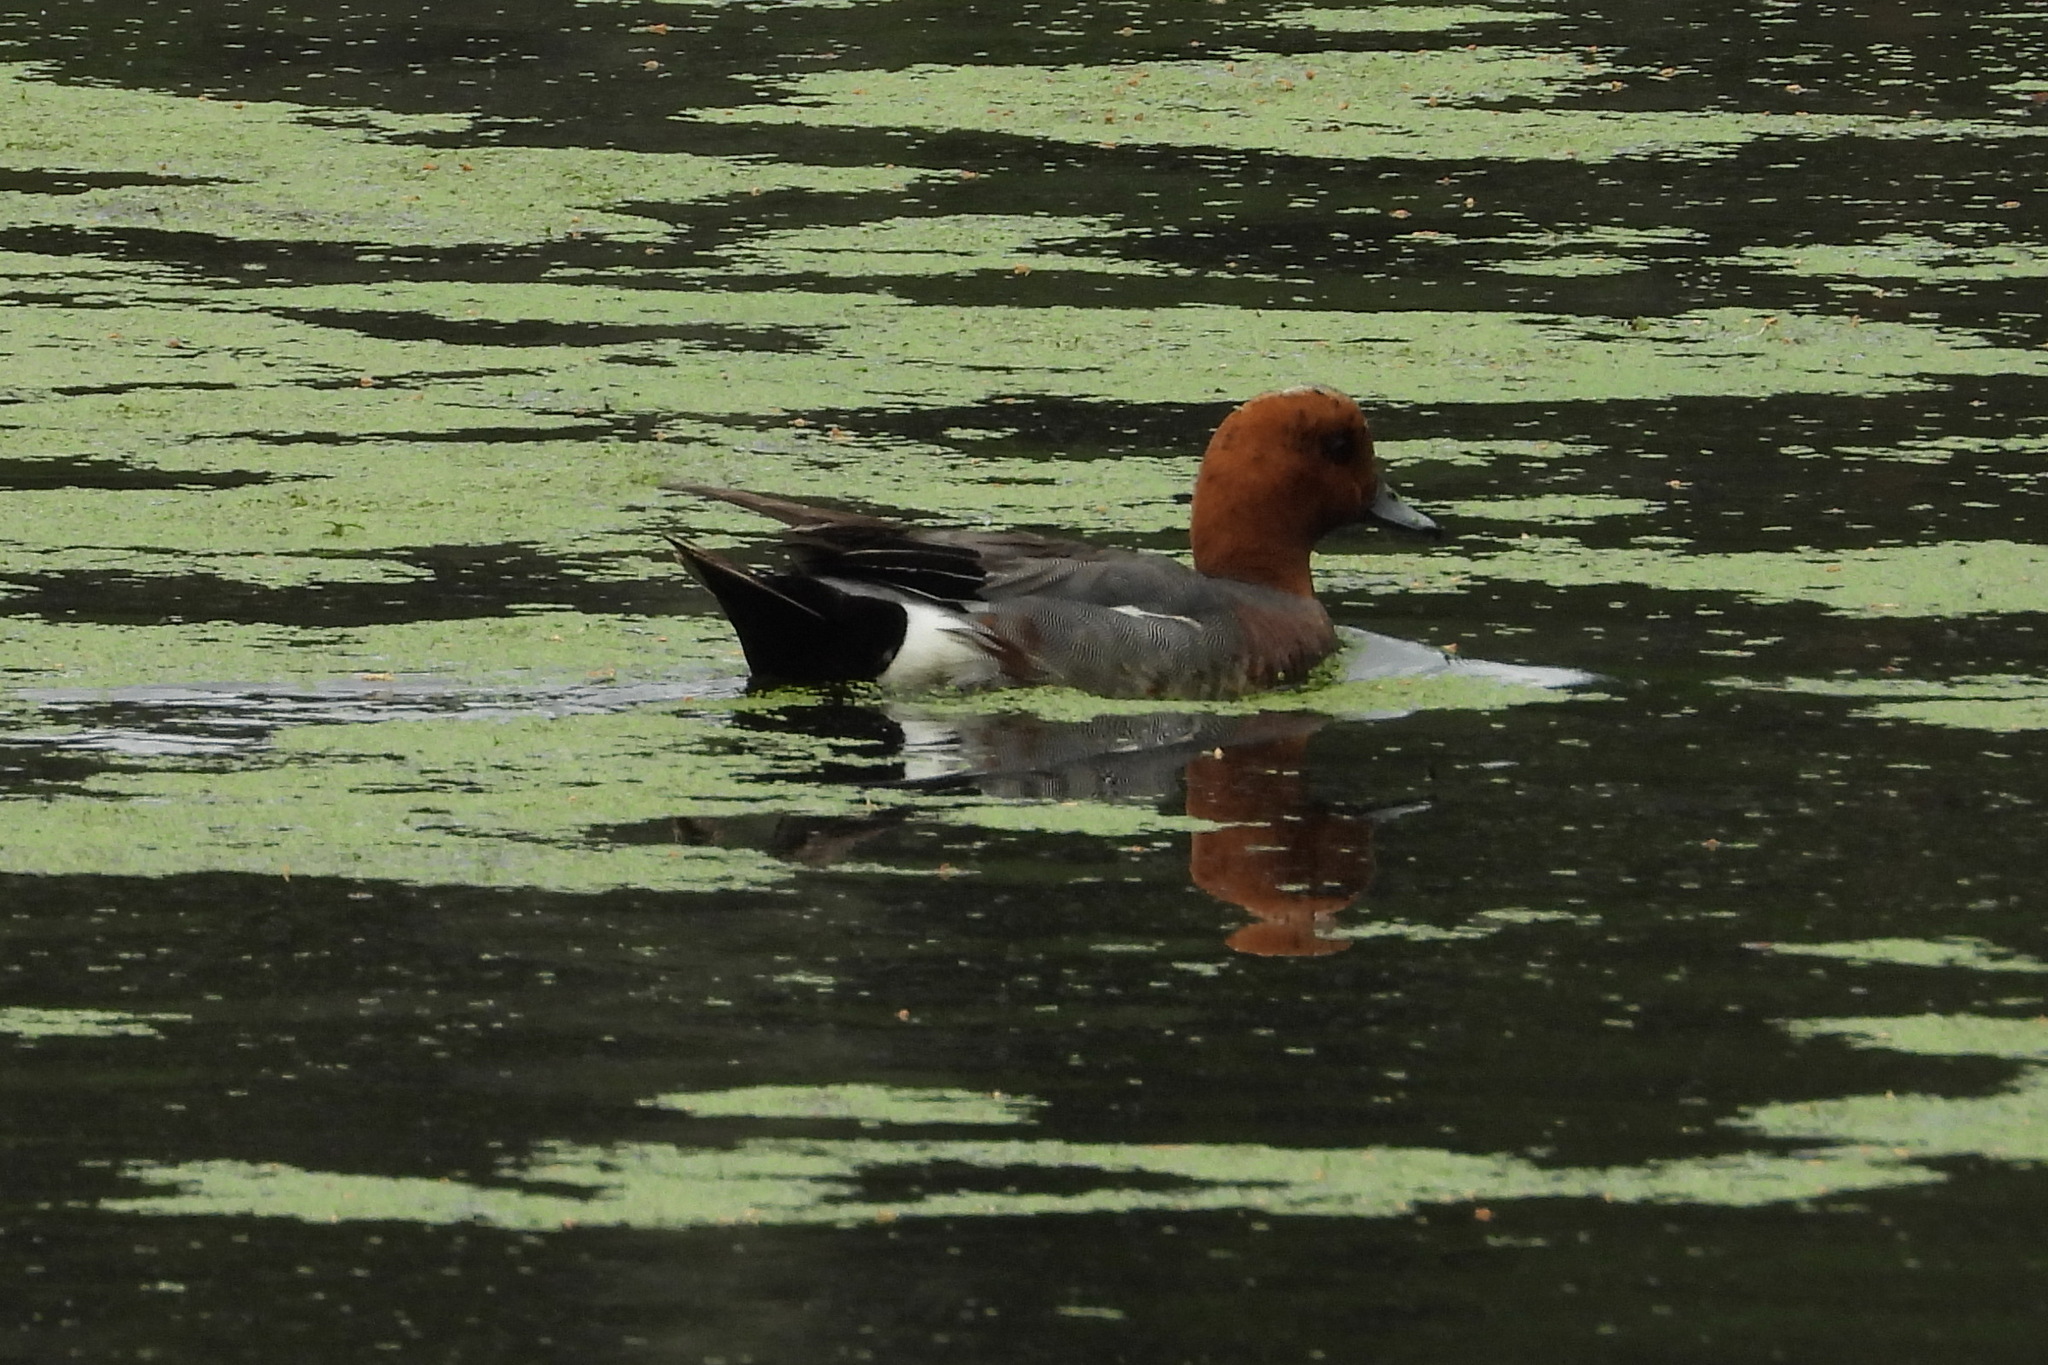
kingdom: Animalia
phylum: Chordata
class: Aves
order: Anseriformes
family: Anatidae
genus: Mareca
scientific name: Mareca penelope
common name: Eurasian wigeon
